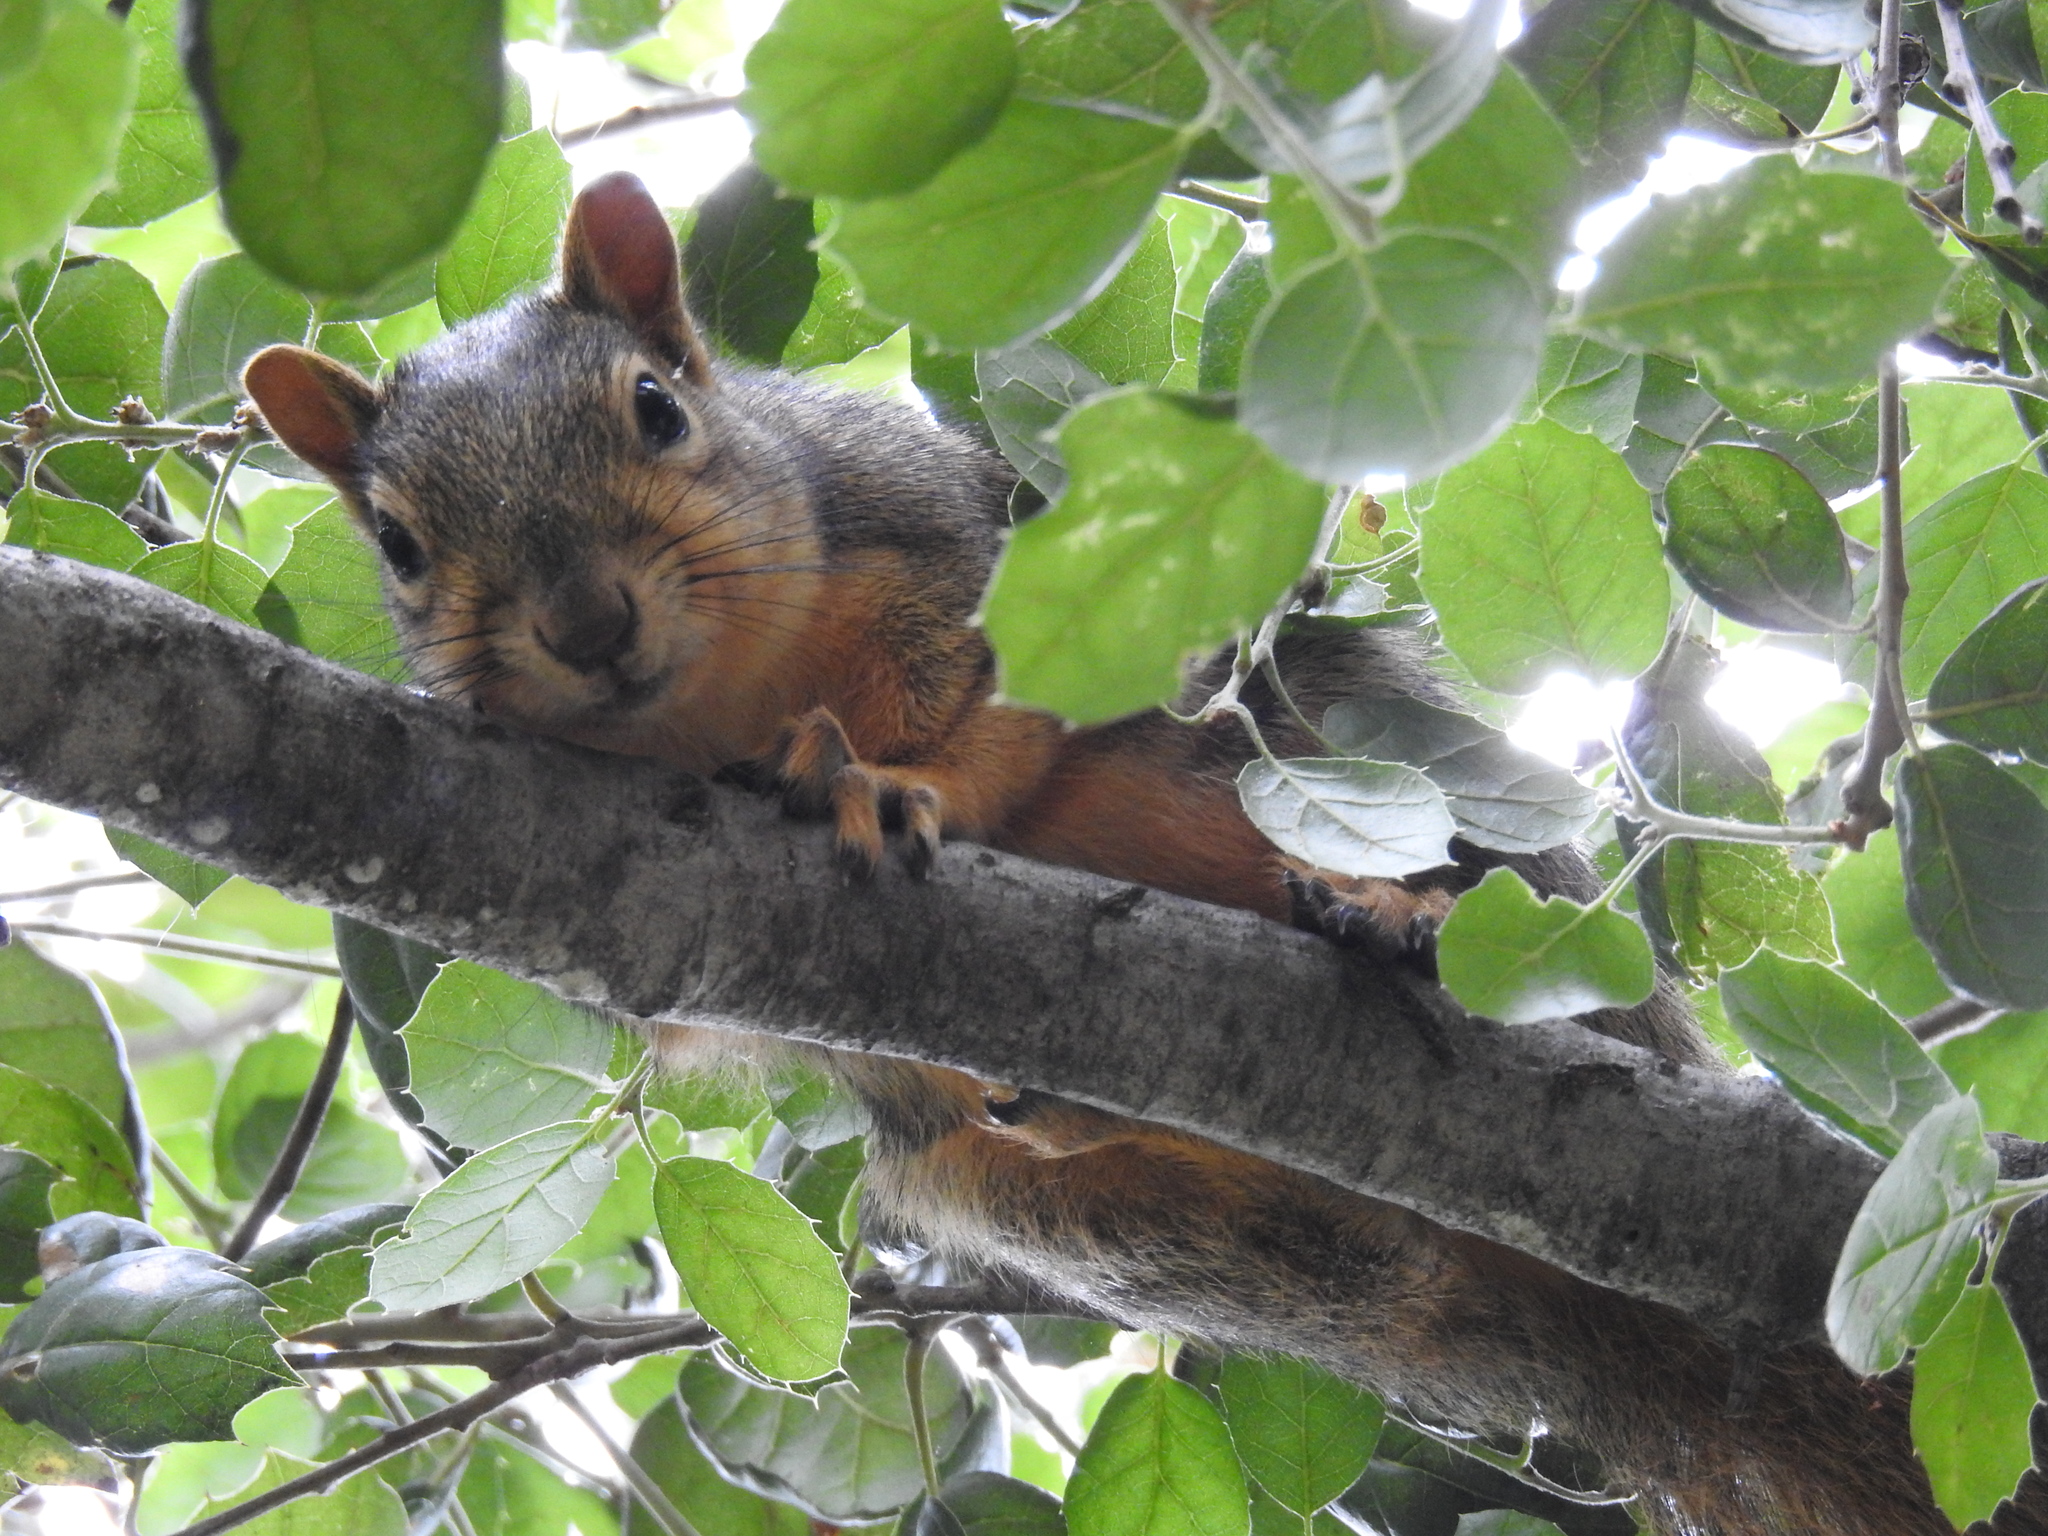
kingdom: Animalia
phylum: Chordata
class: Mammalia
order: Rodentia
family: Sciuridae
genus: Sciurus
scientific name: Sciurus niger
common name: Fox squirrel
